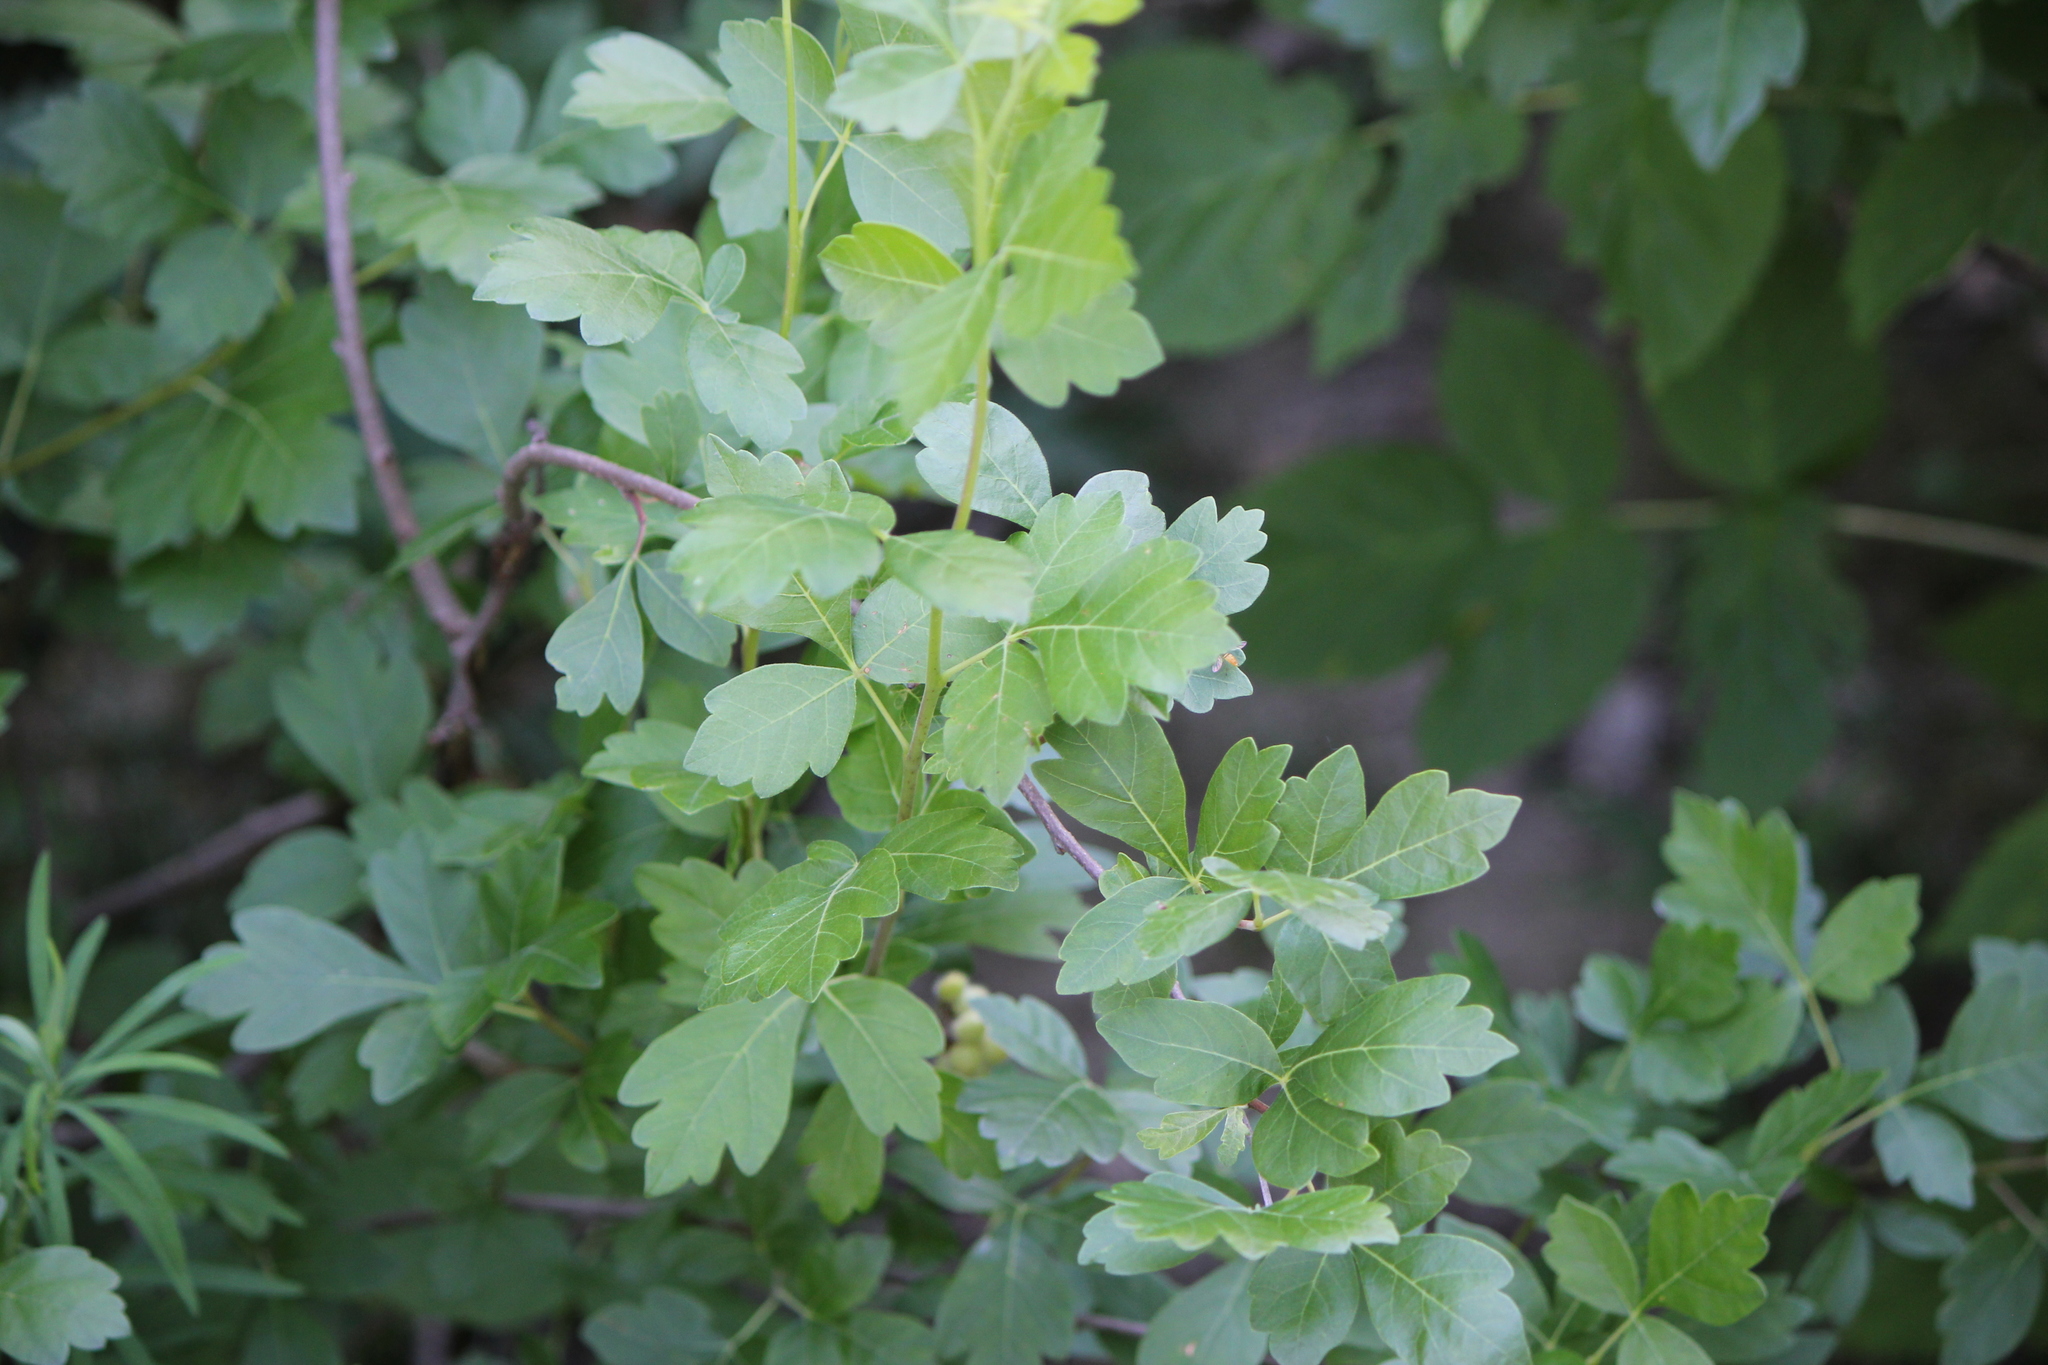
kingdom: Plantae
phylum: Tracheophyta
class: Magnoliopsida
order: Sapindales
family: Anacardiaceae
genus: Rhus
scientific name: Rhus aromatica
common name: Aromatic sumac
